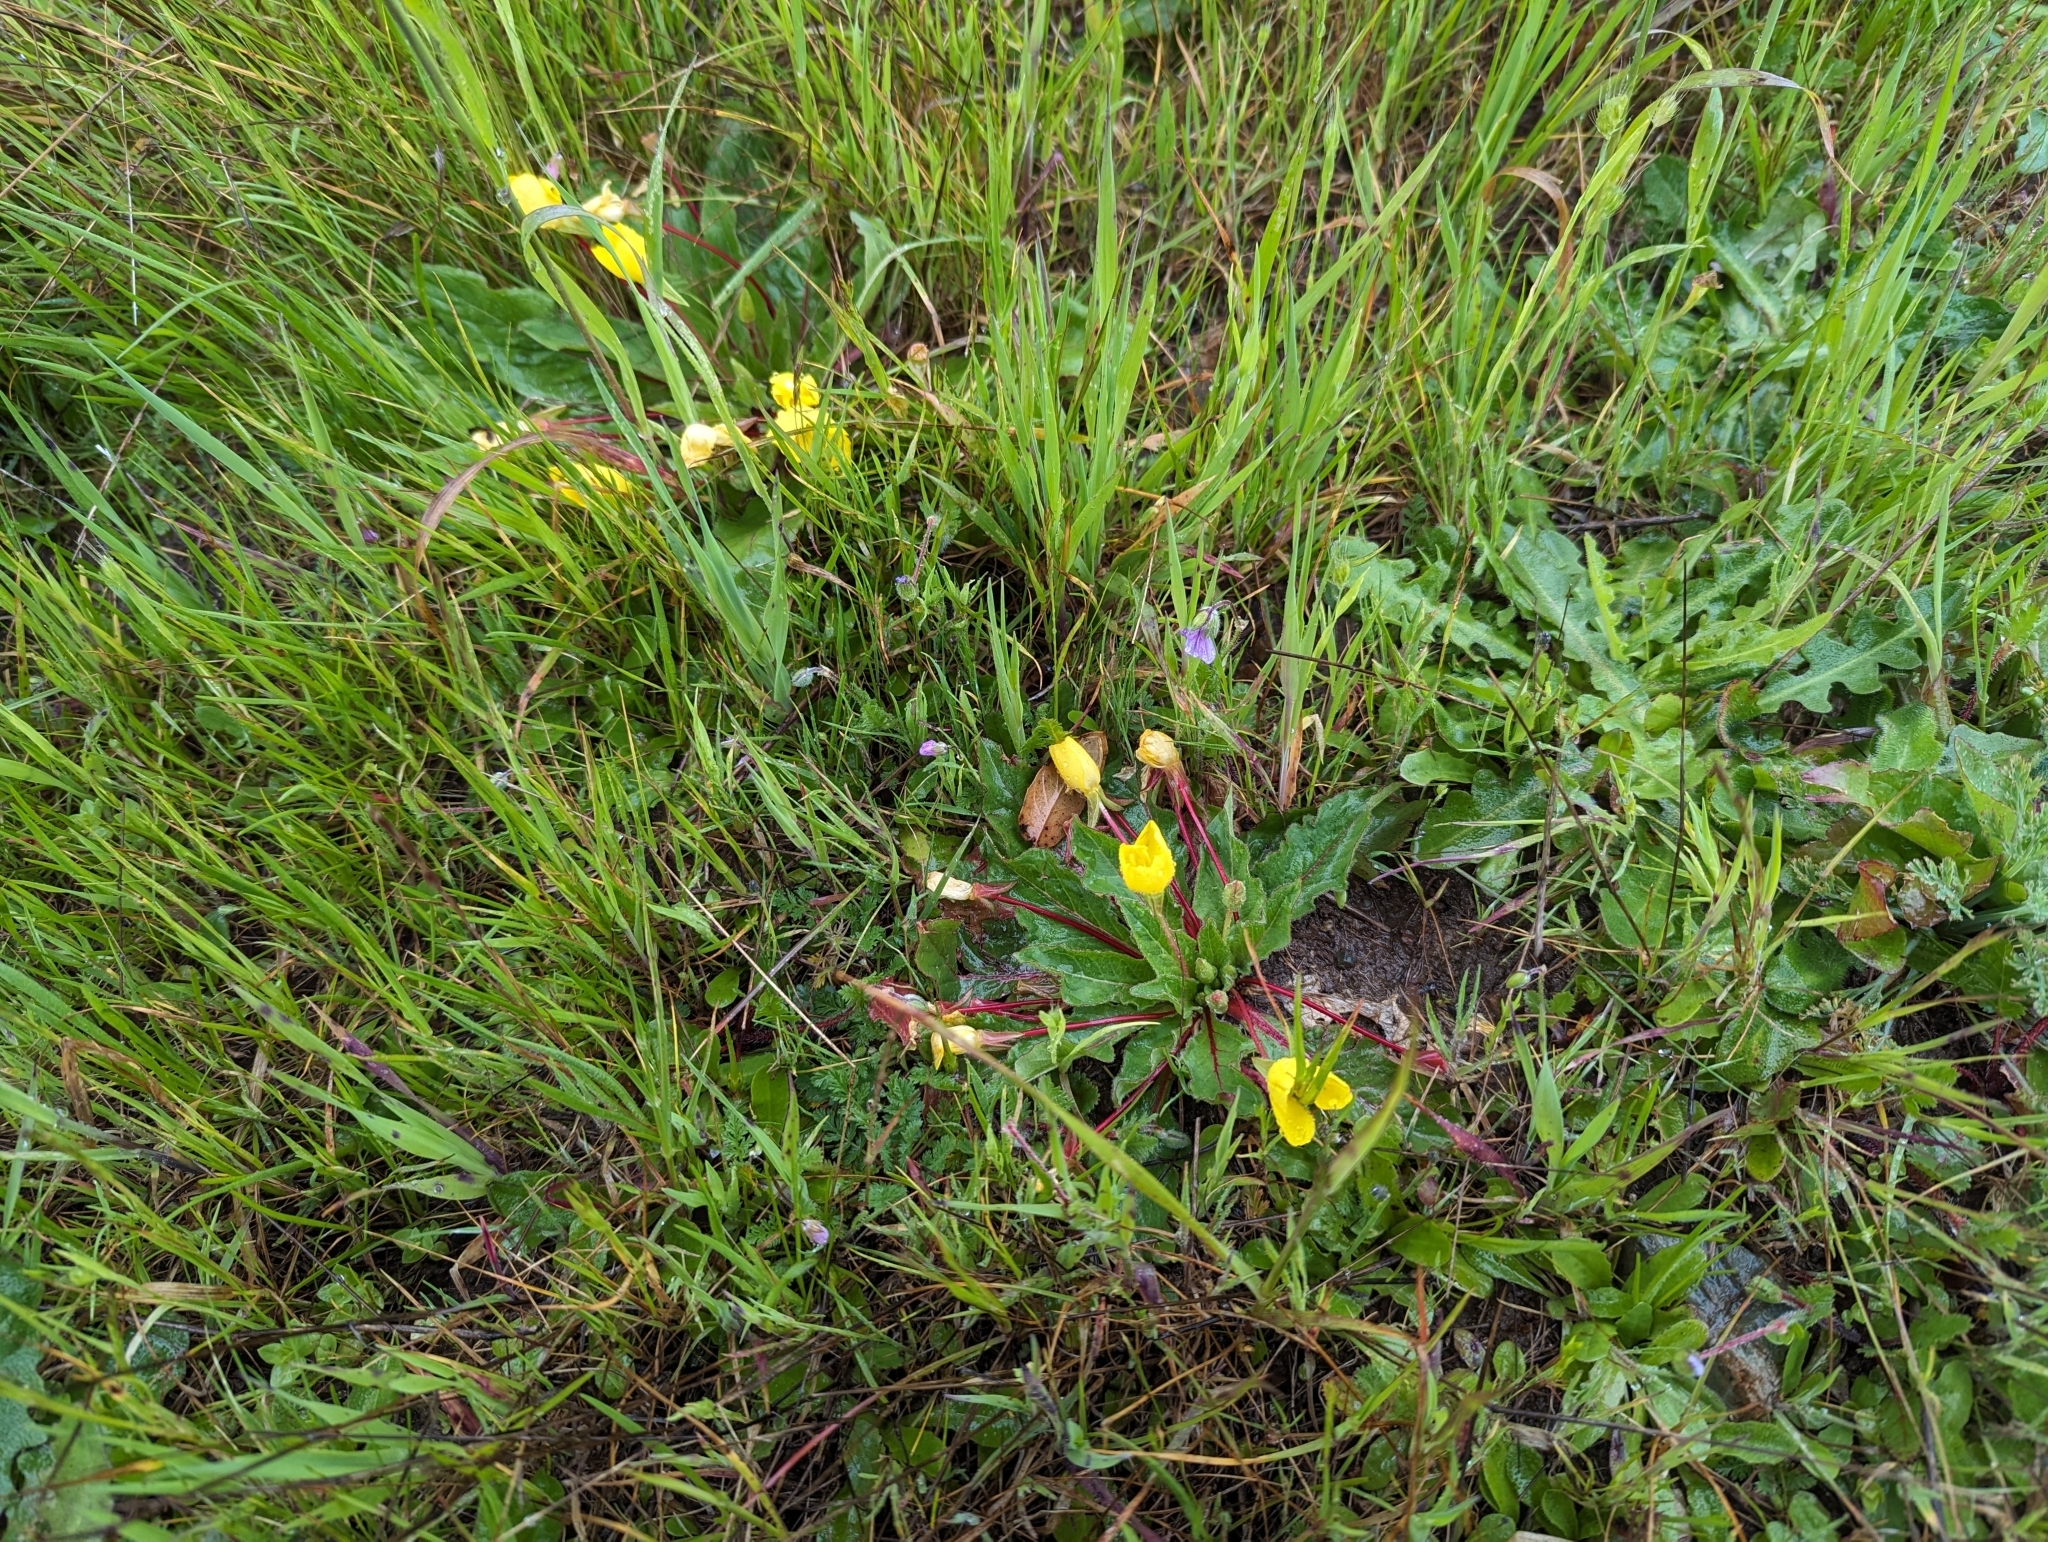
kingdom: Plantae
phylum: Tracheophyta
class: Magnoliopsida
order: Myrtales
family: Onagraceae
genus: Taraxia
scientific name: Taraxia ovata
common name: Goldeneggs
